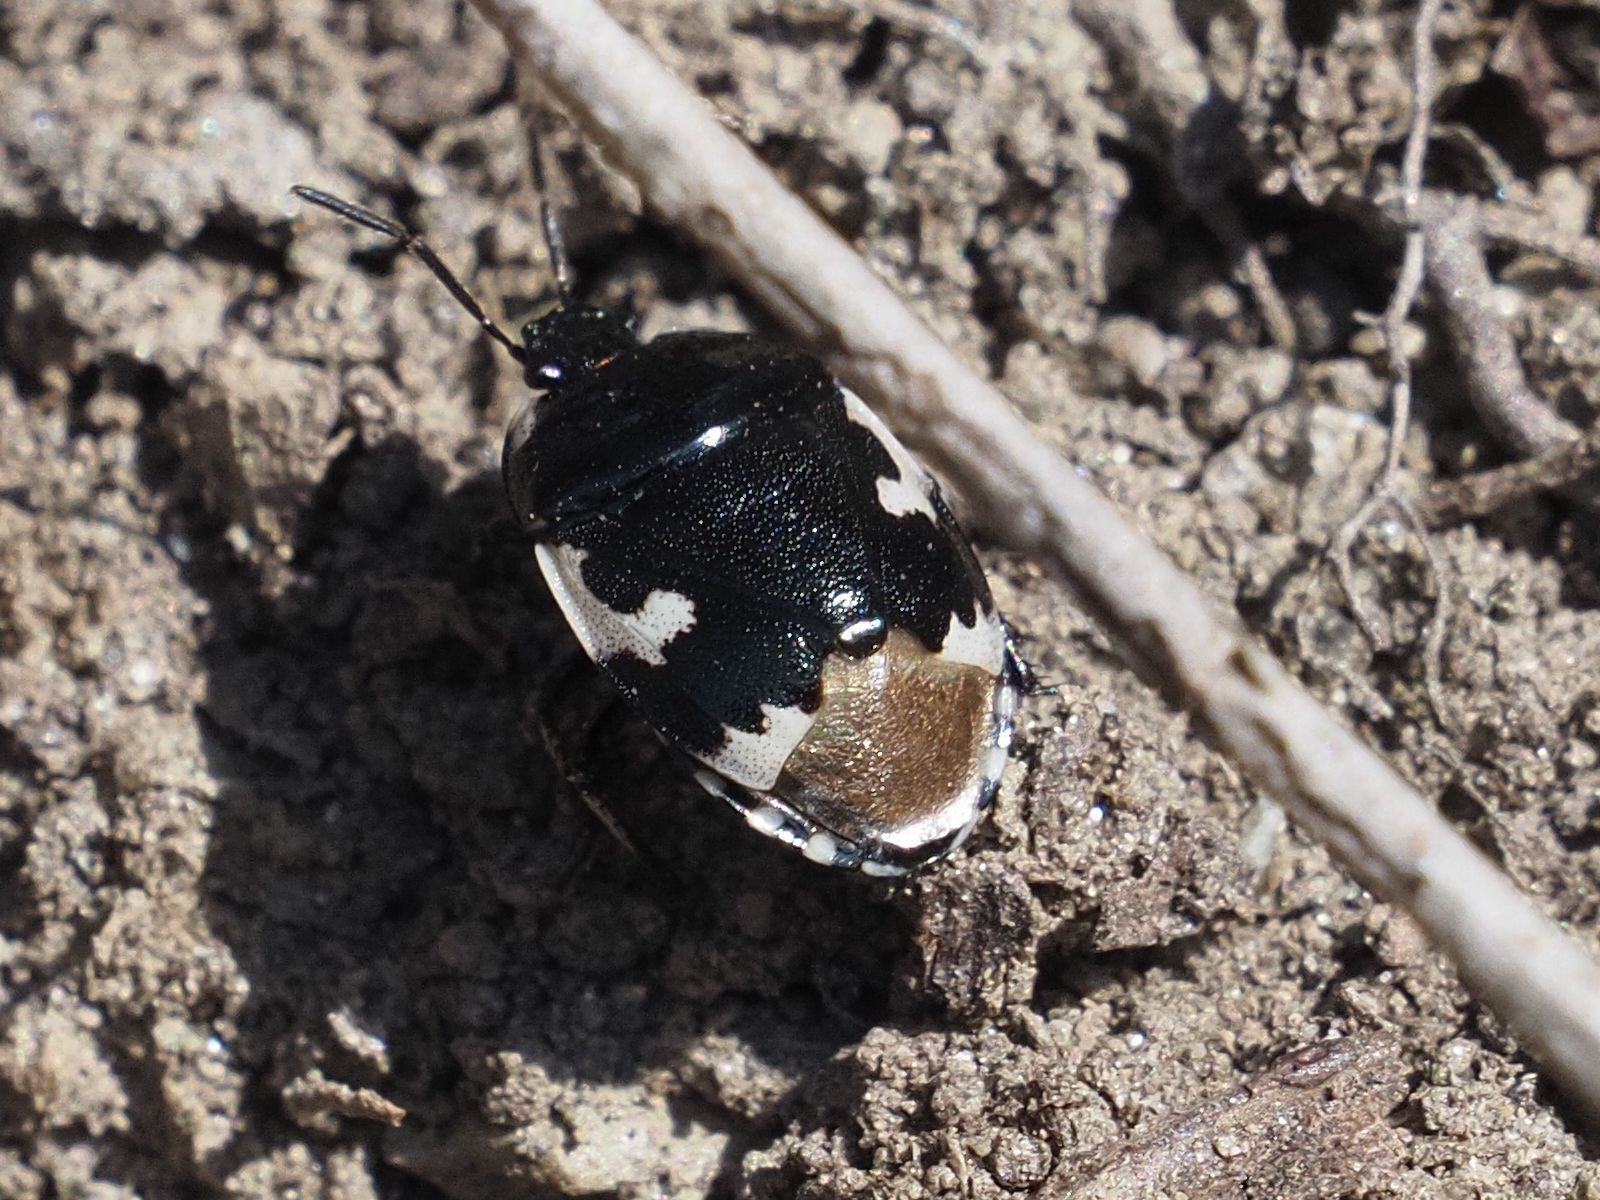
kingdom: Animalia
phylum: Arthropoda
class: Insecta
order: Hemiptera
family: Cydnidae
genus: Tritomegas
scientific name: Tritomegas bicolor
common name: Pied shieldbug
